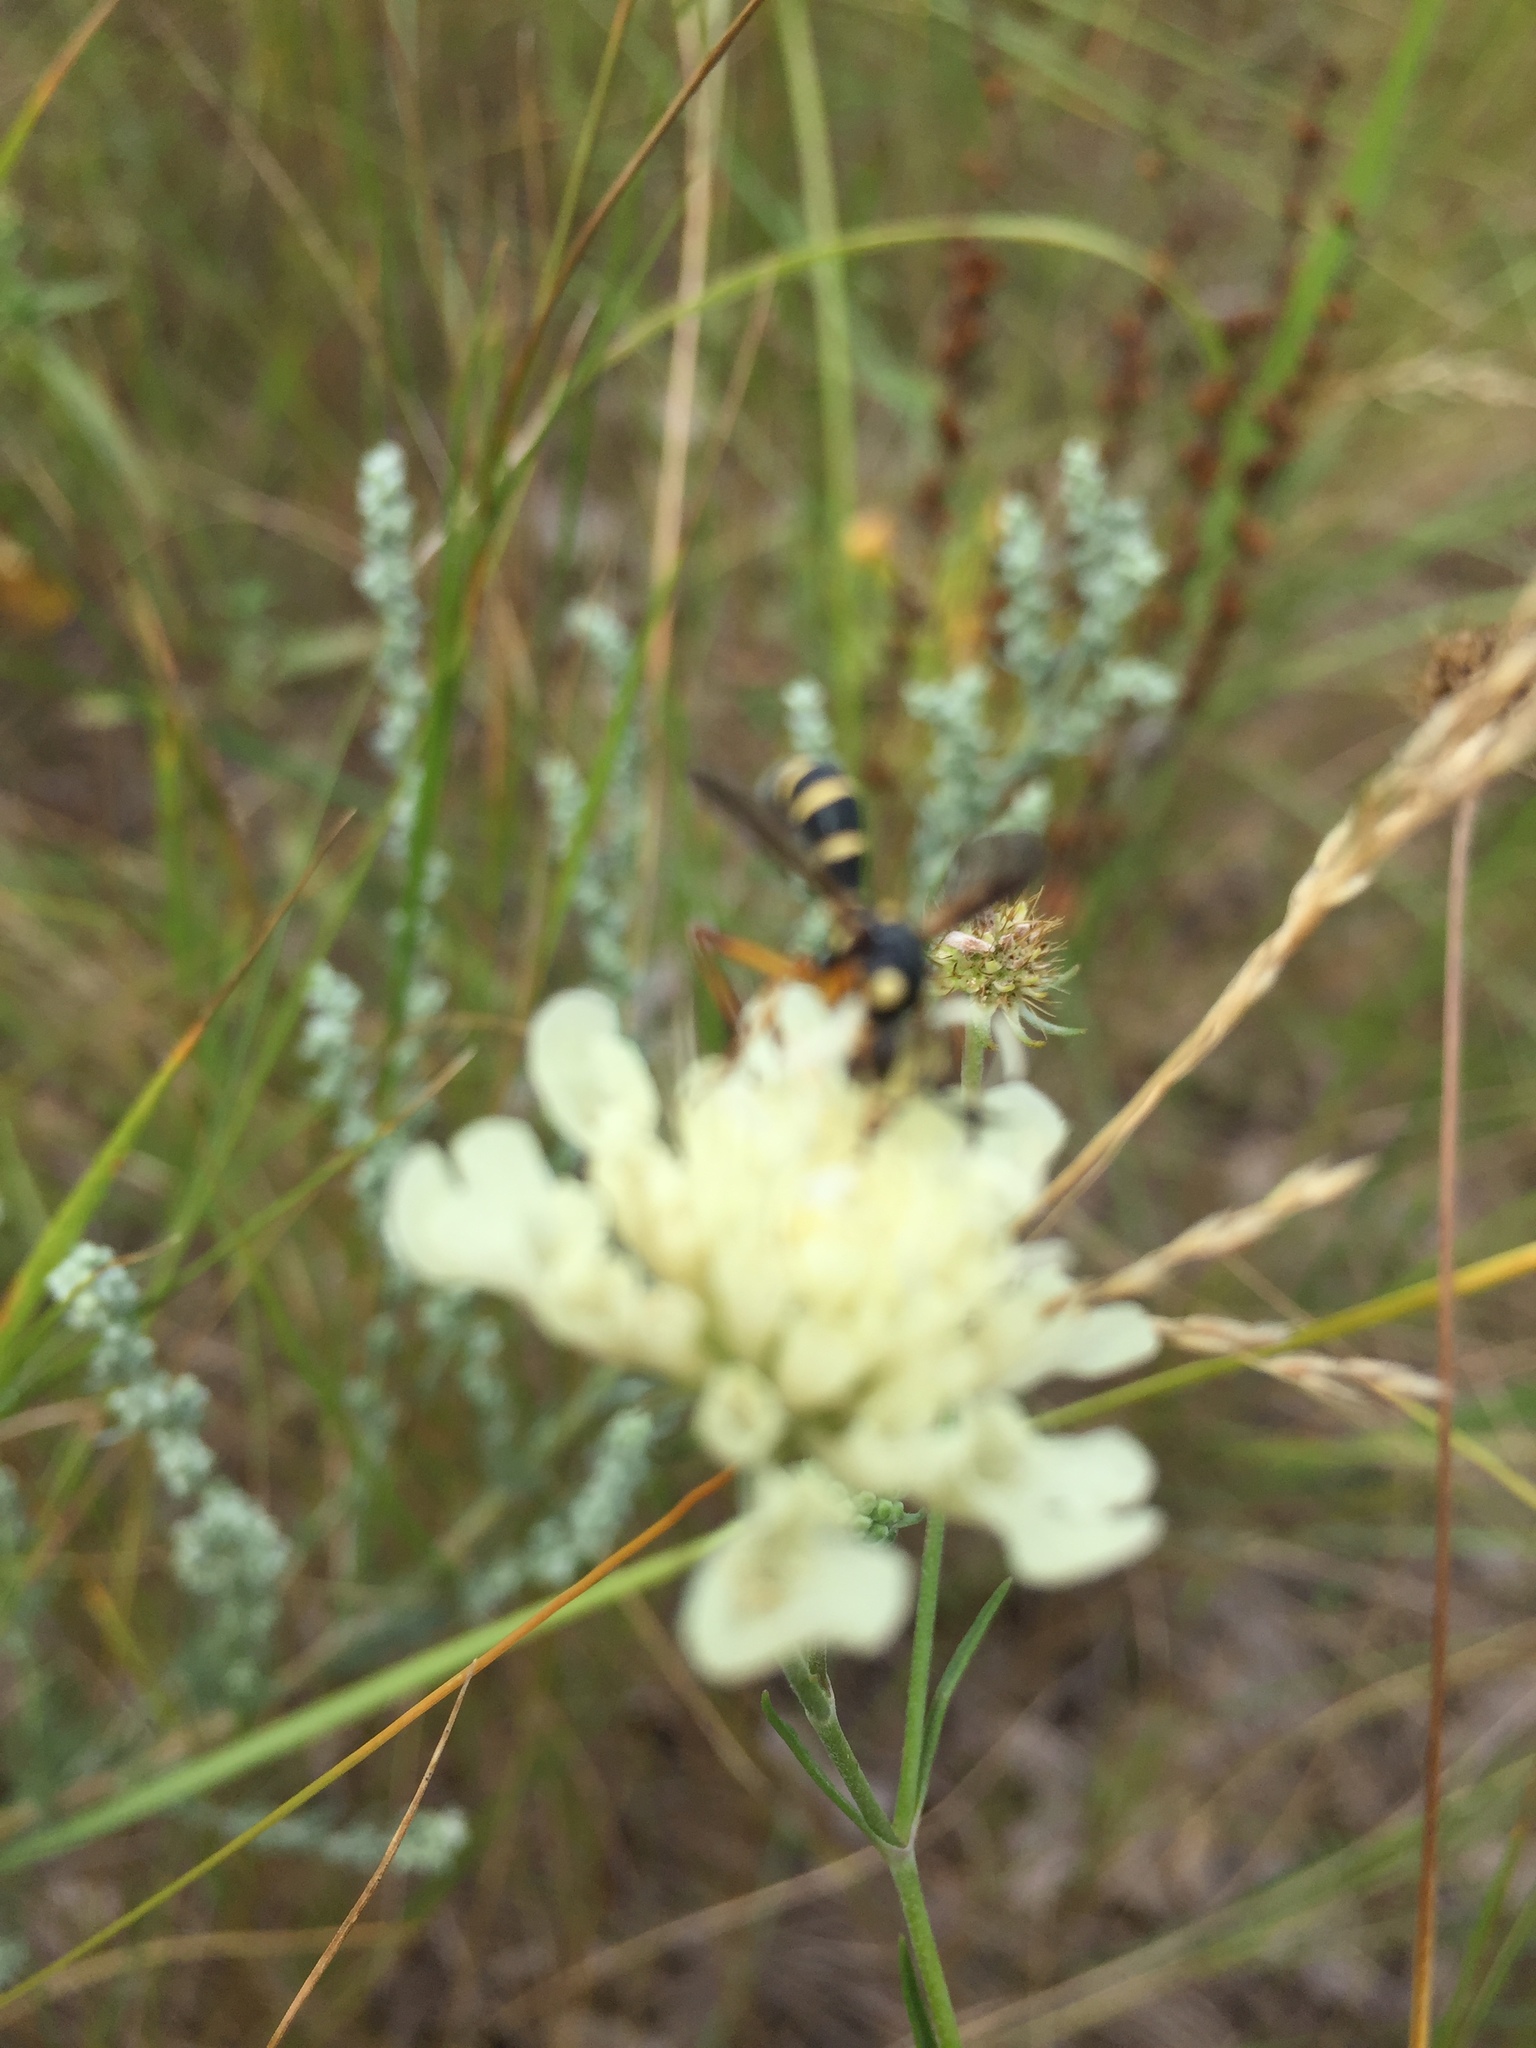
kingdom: Plantae
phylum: Tracheophyta
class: Magnoliopsida
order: Dipsacales
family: Caprifoliaceae
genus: Scabiosa
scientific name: Scabiosa ochroleuca
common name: Cream pincushions
